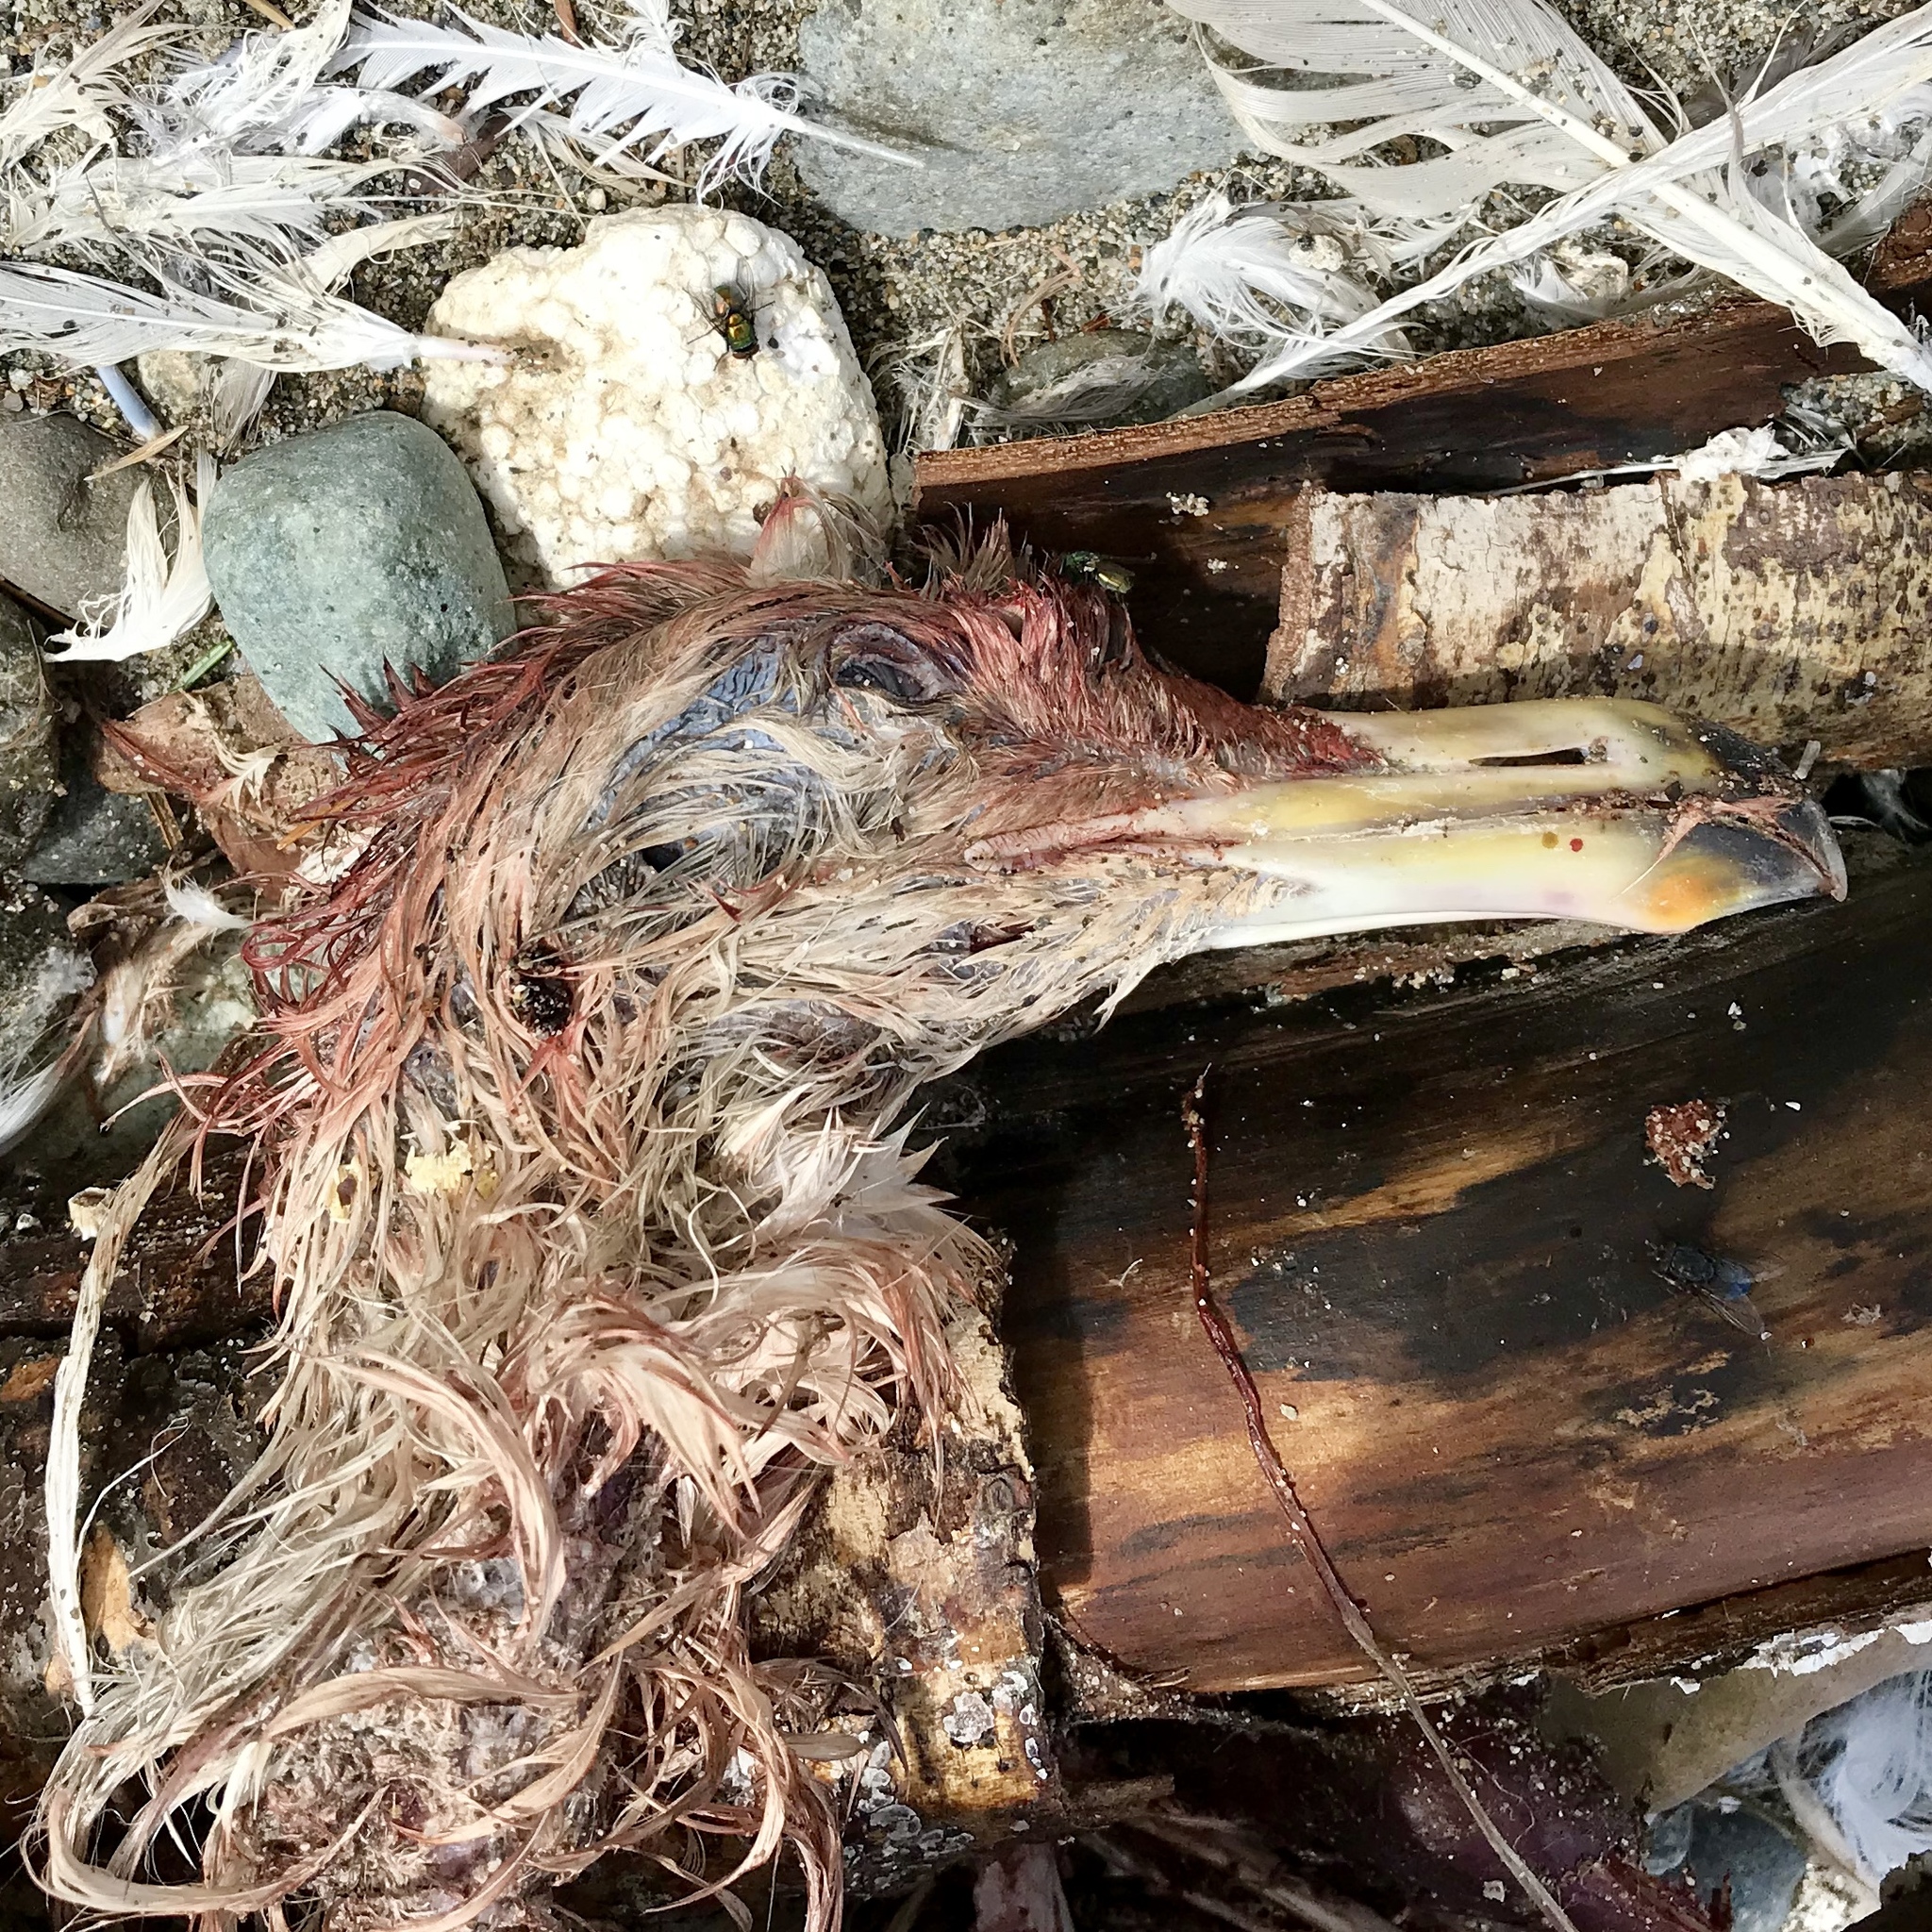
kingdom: Animalia
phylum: Chordata
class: Aves
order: Charadriiformes
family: Laridae
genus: Larus
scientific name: Larus glaucescens
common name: Glaucous-winged gull
